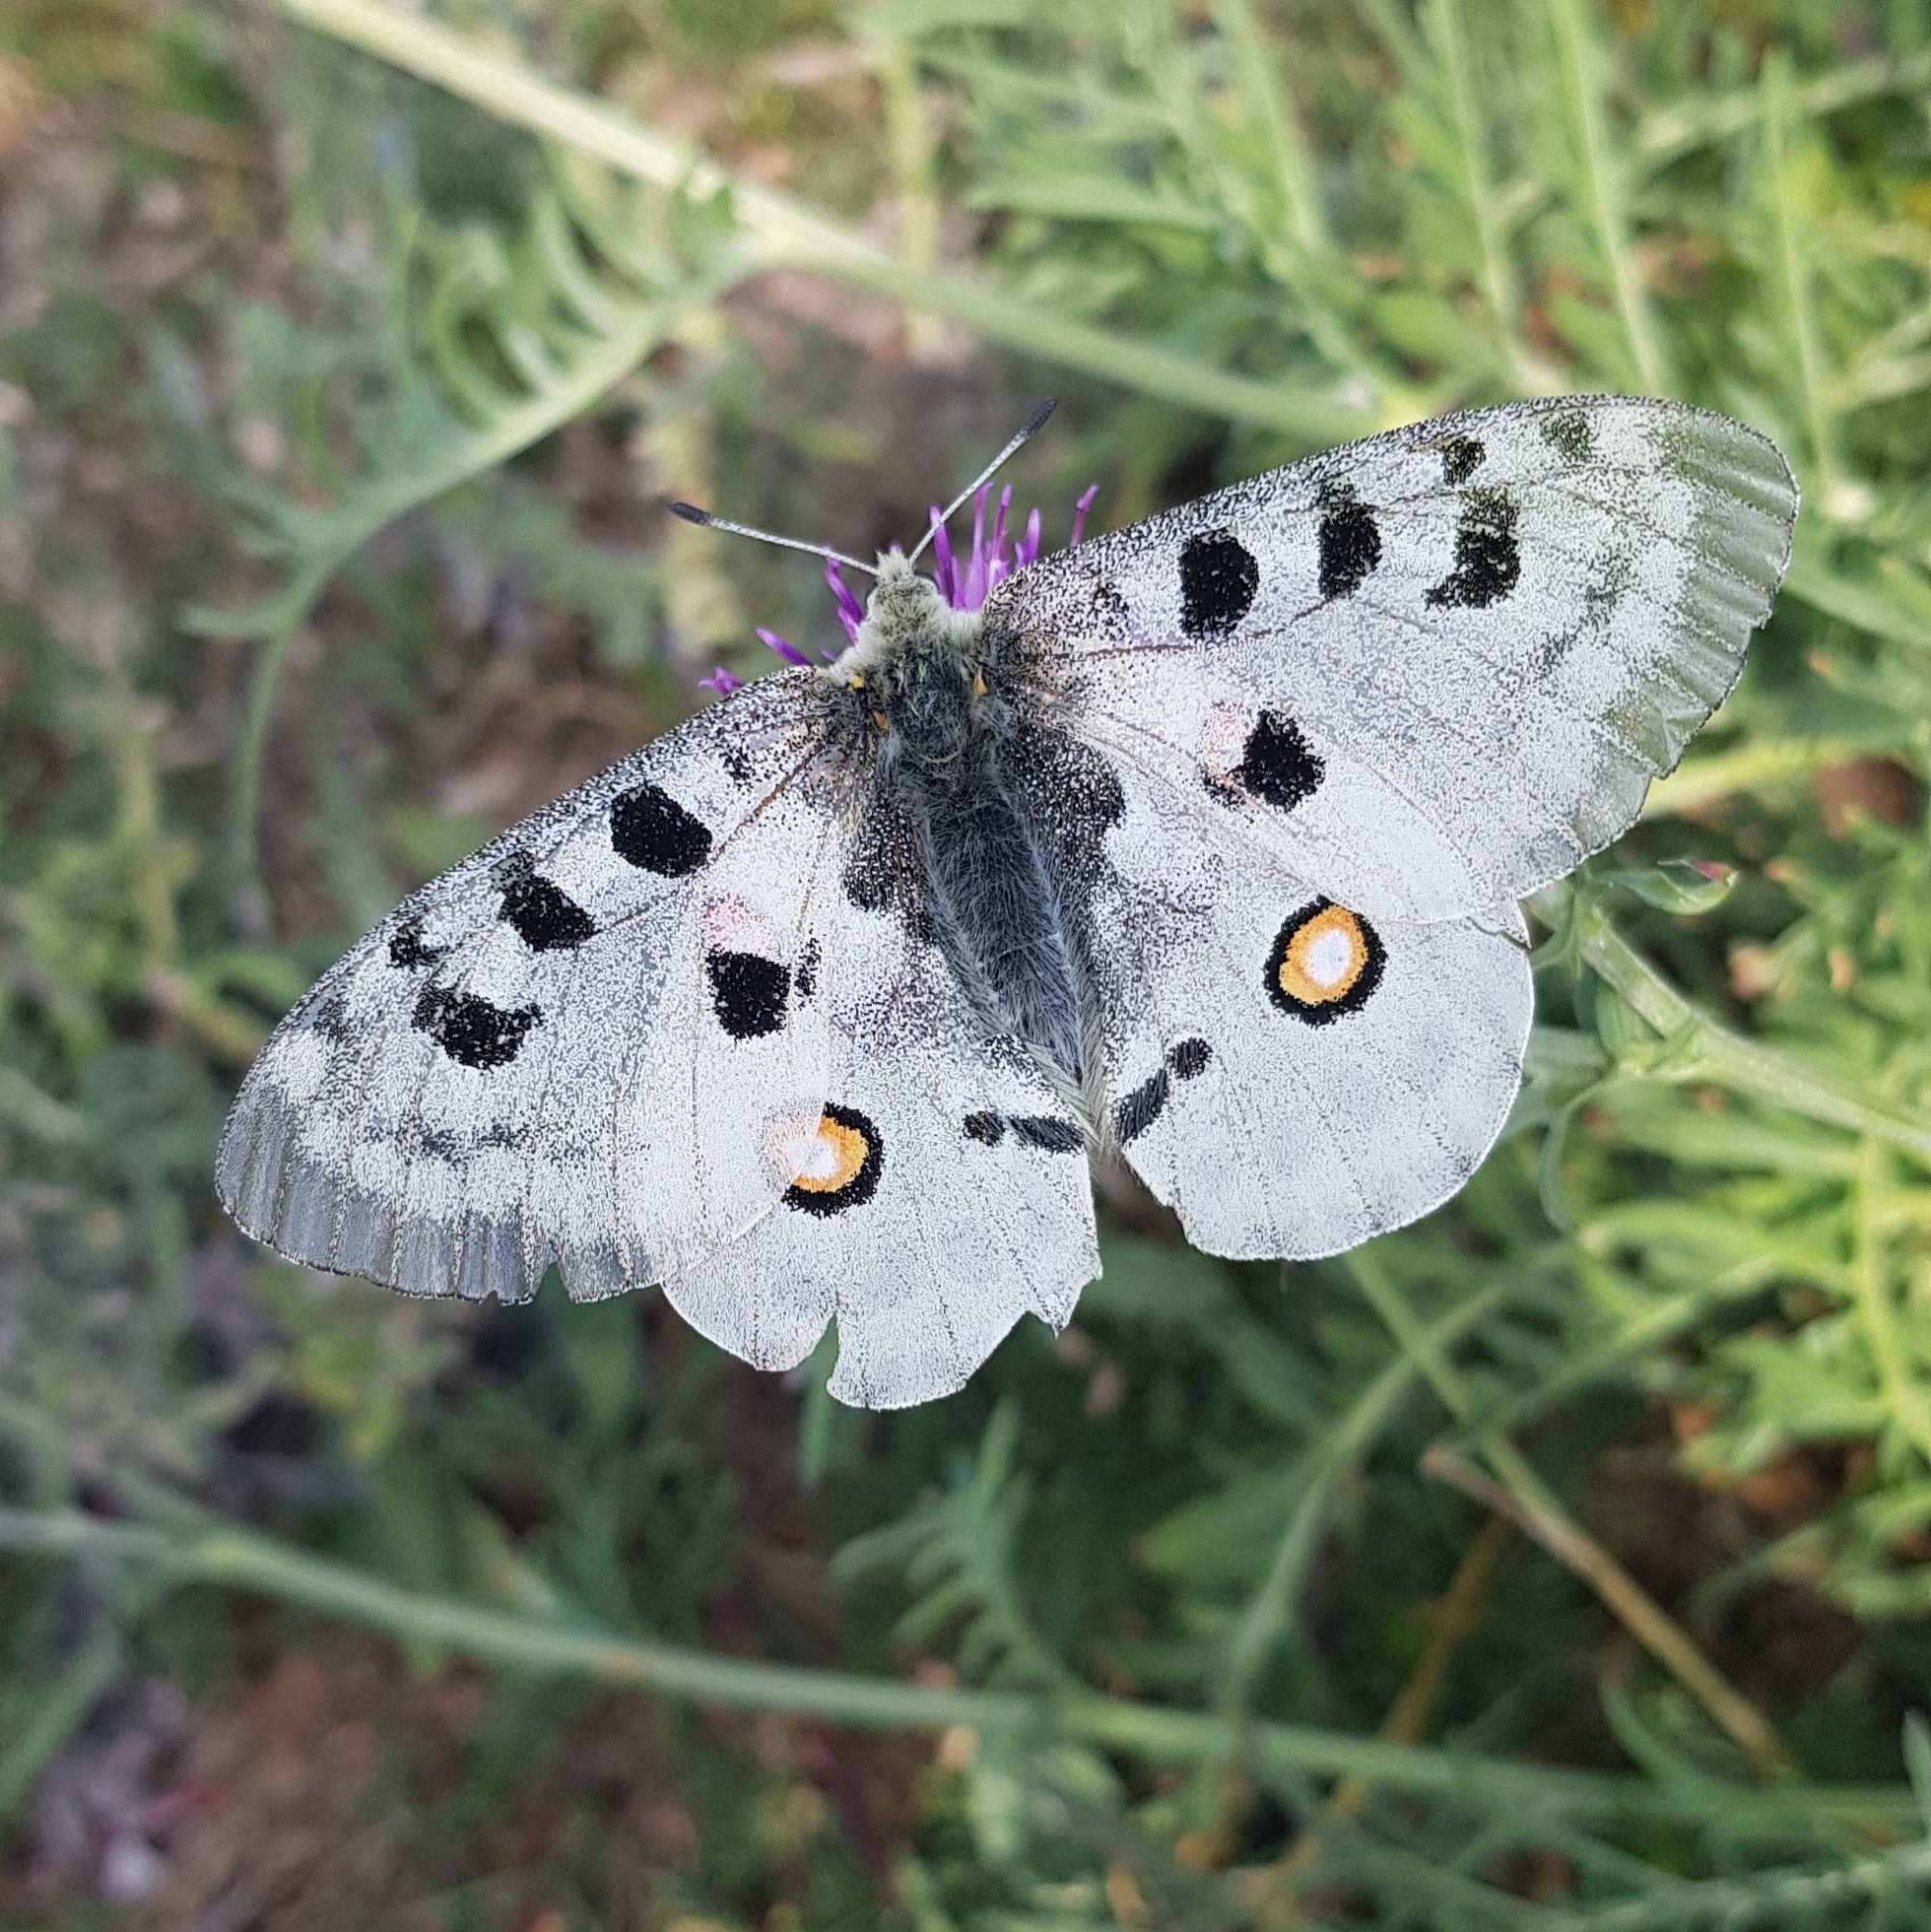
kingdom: Animalia
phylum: Arthropoda
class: Insecta
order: Lepidoptera
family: Papilionidae
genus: Parnassius
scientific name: Parnassius apollo
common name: Apollo
